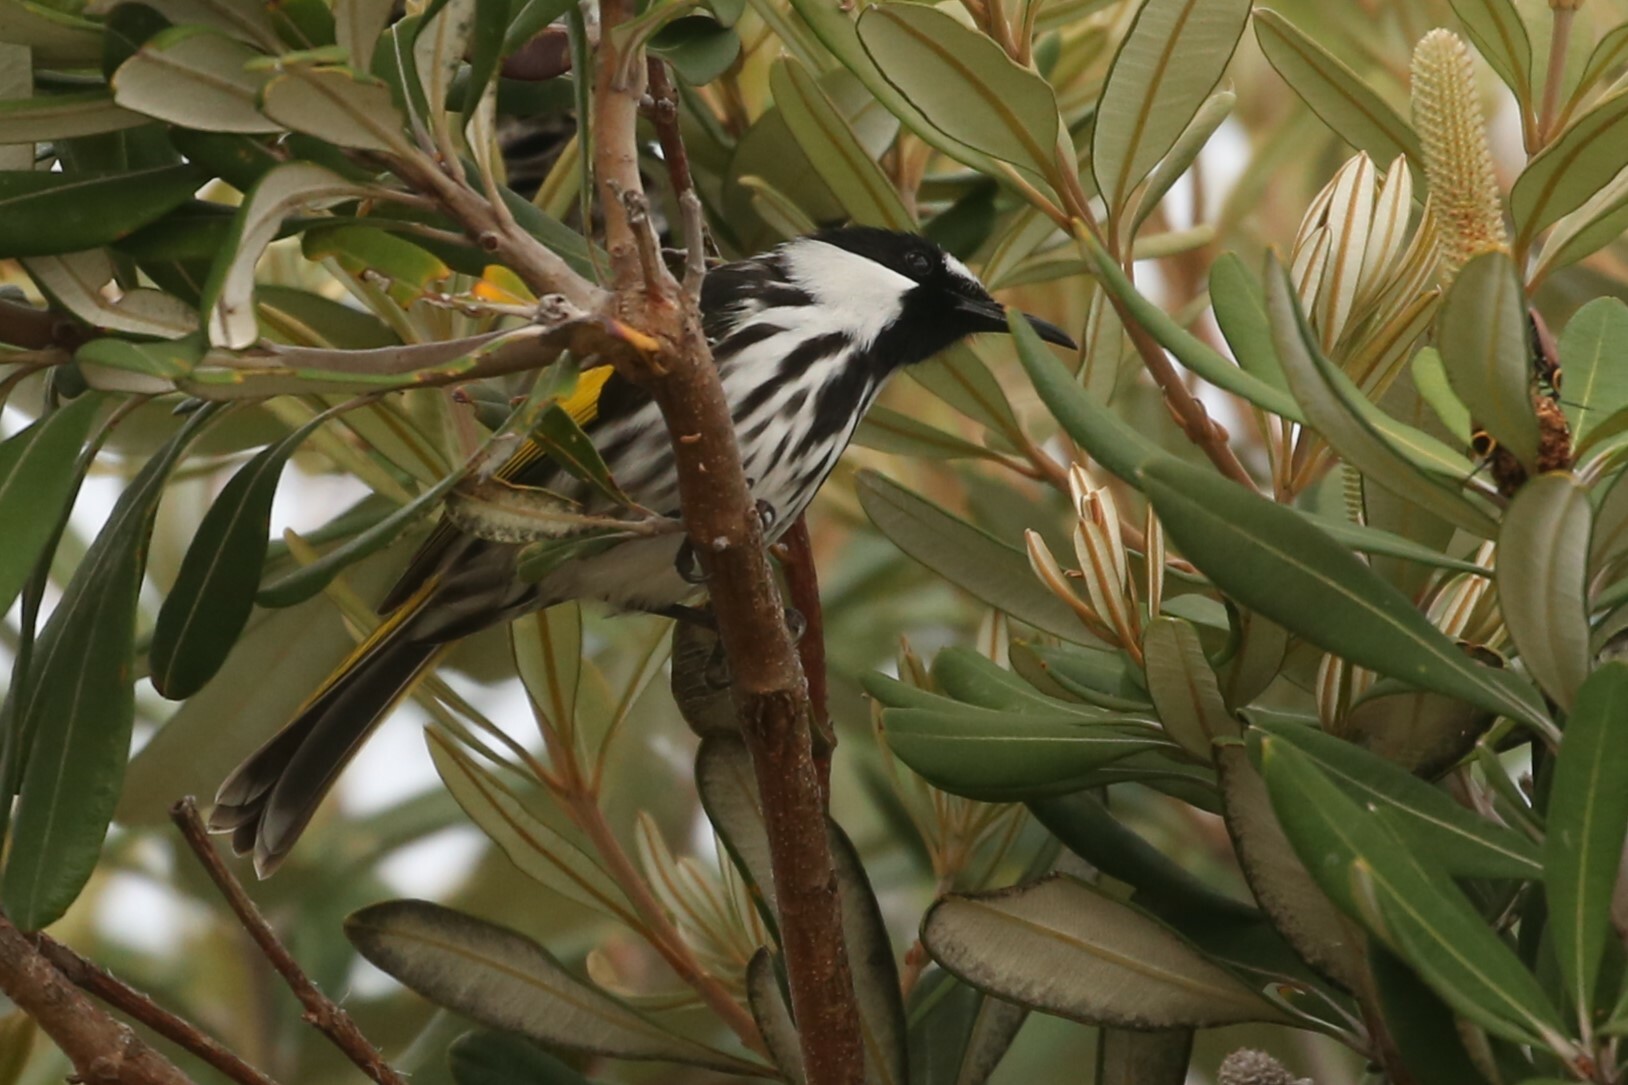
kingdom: Animalia
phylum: Chordata
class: Aves
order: Passeriformes
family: Meliphagidae
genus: Phylidonyris
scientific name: Phylidonyris niger
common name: White-cheeked honeyeater
